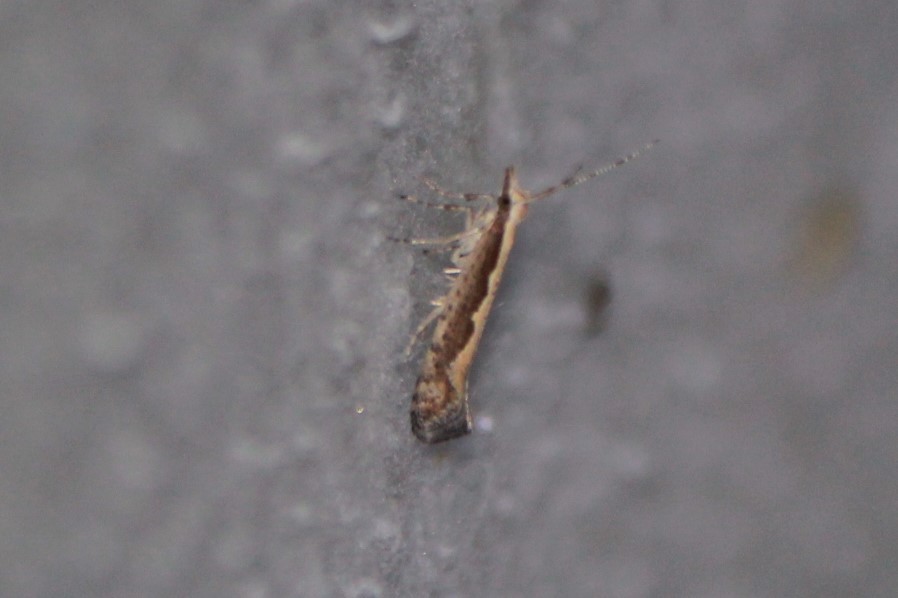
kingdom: Animalia
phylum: Arthropoda
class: Insecta
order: Lepidoptera
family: Plutellidae
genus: Plutella
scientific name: Plutella xylostella
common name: Diamond-back moth
